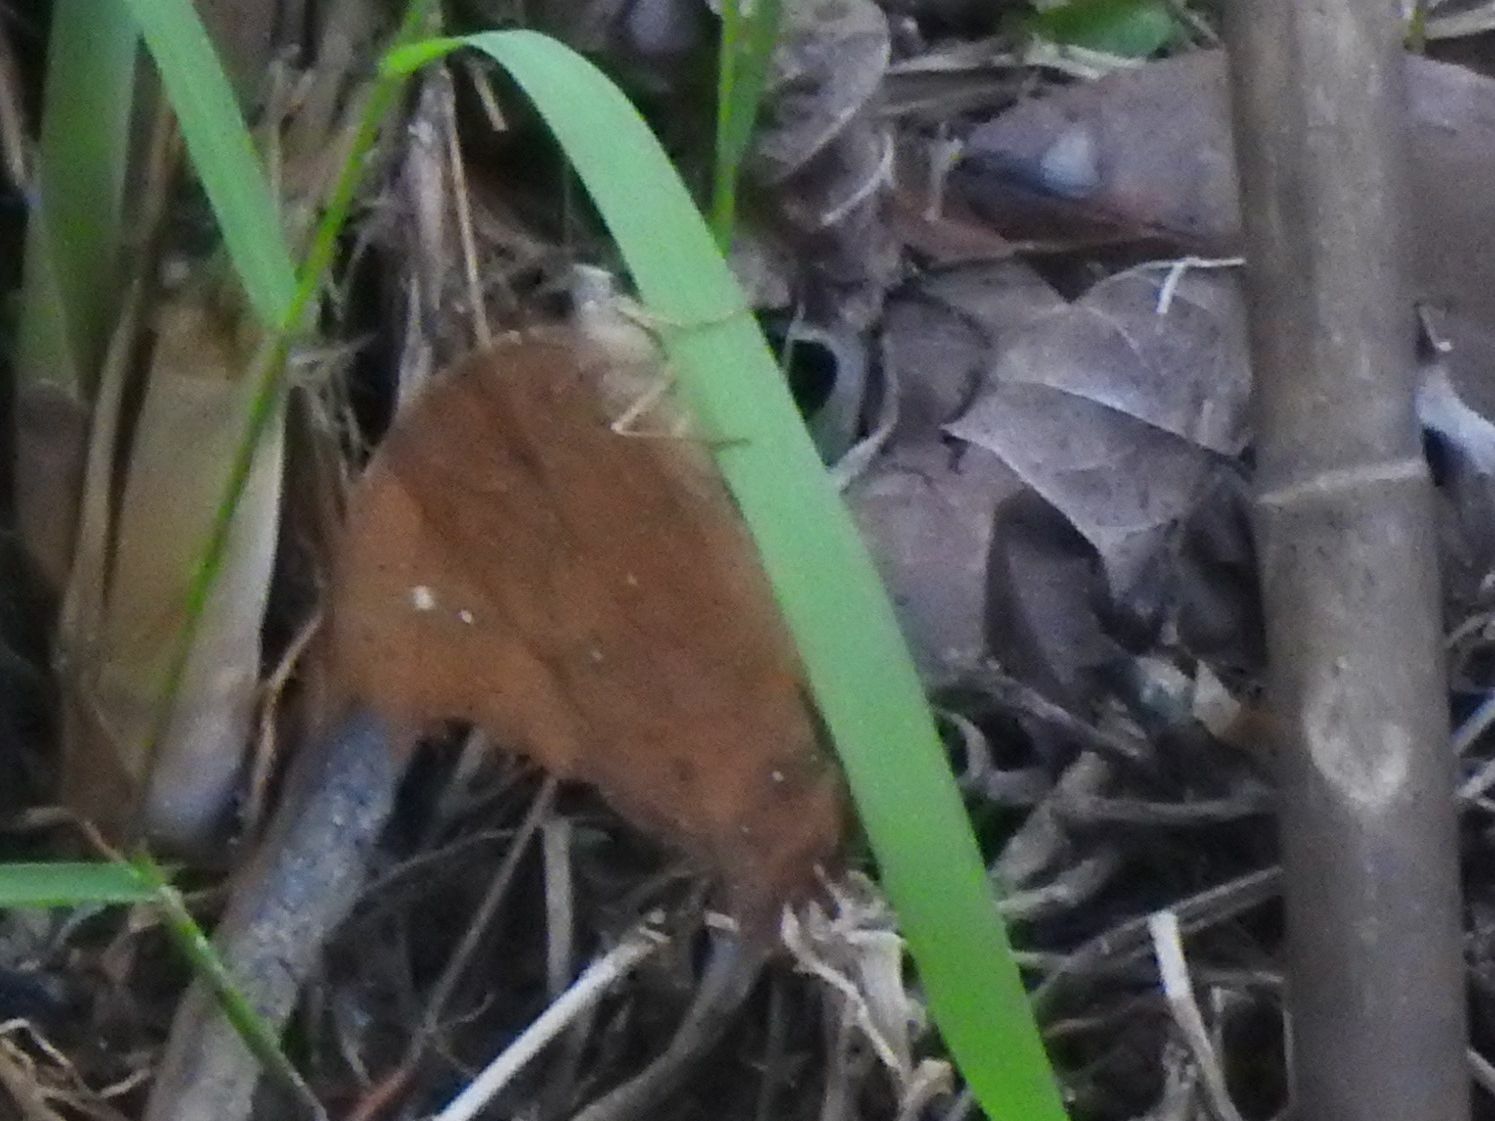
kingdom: Animalia
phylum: Arthropoda
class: Insecta
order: Lepidoptera
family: Nymphalidae
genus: Melanitis
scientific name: Melanitis leda
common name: Twilight brown
